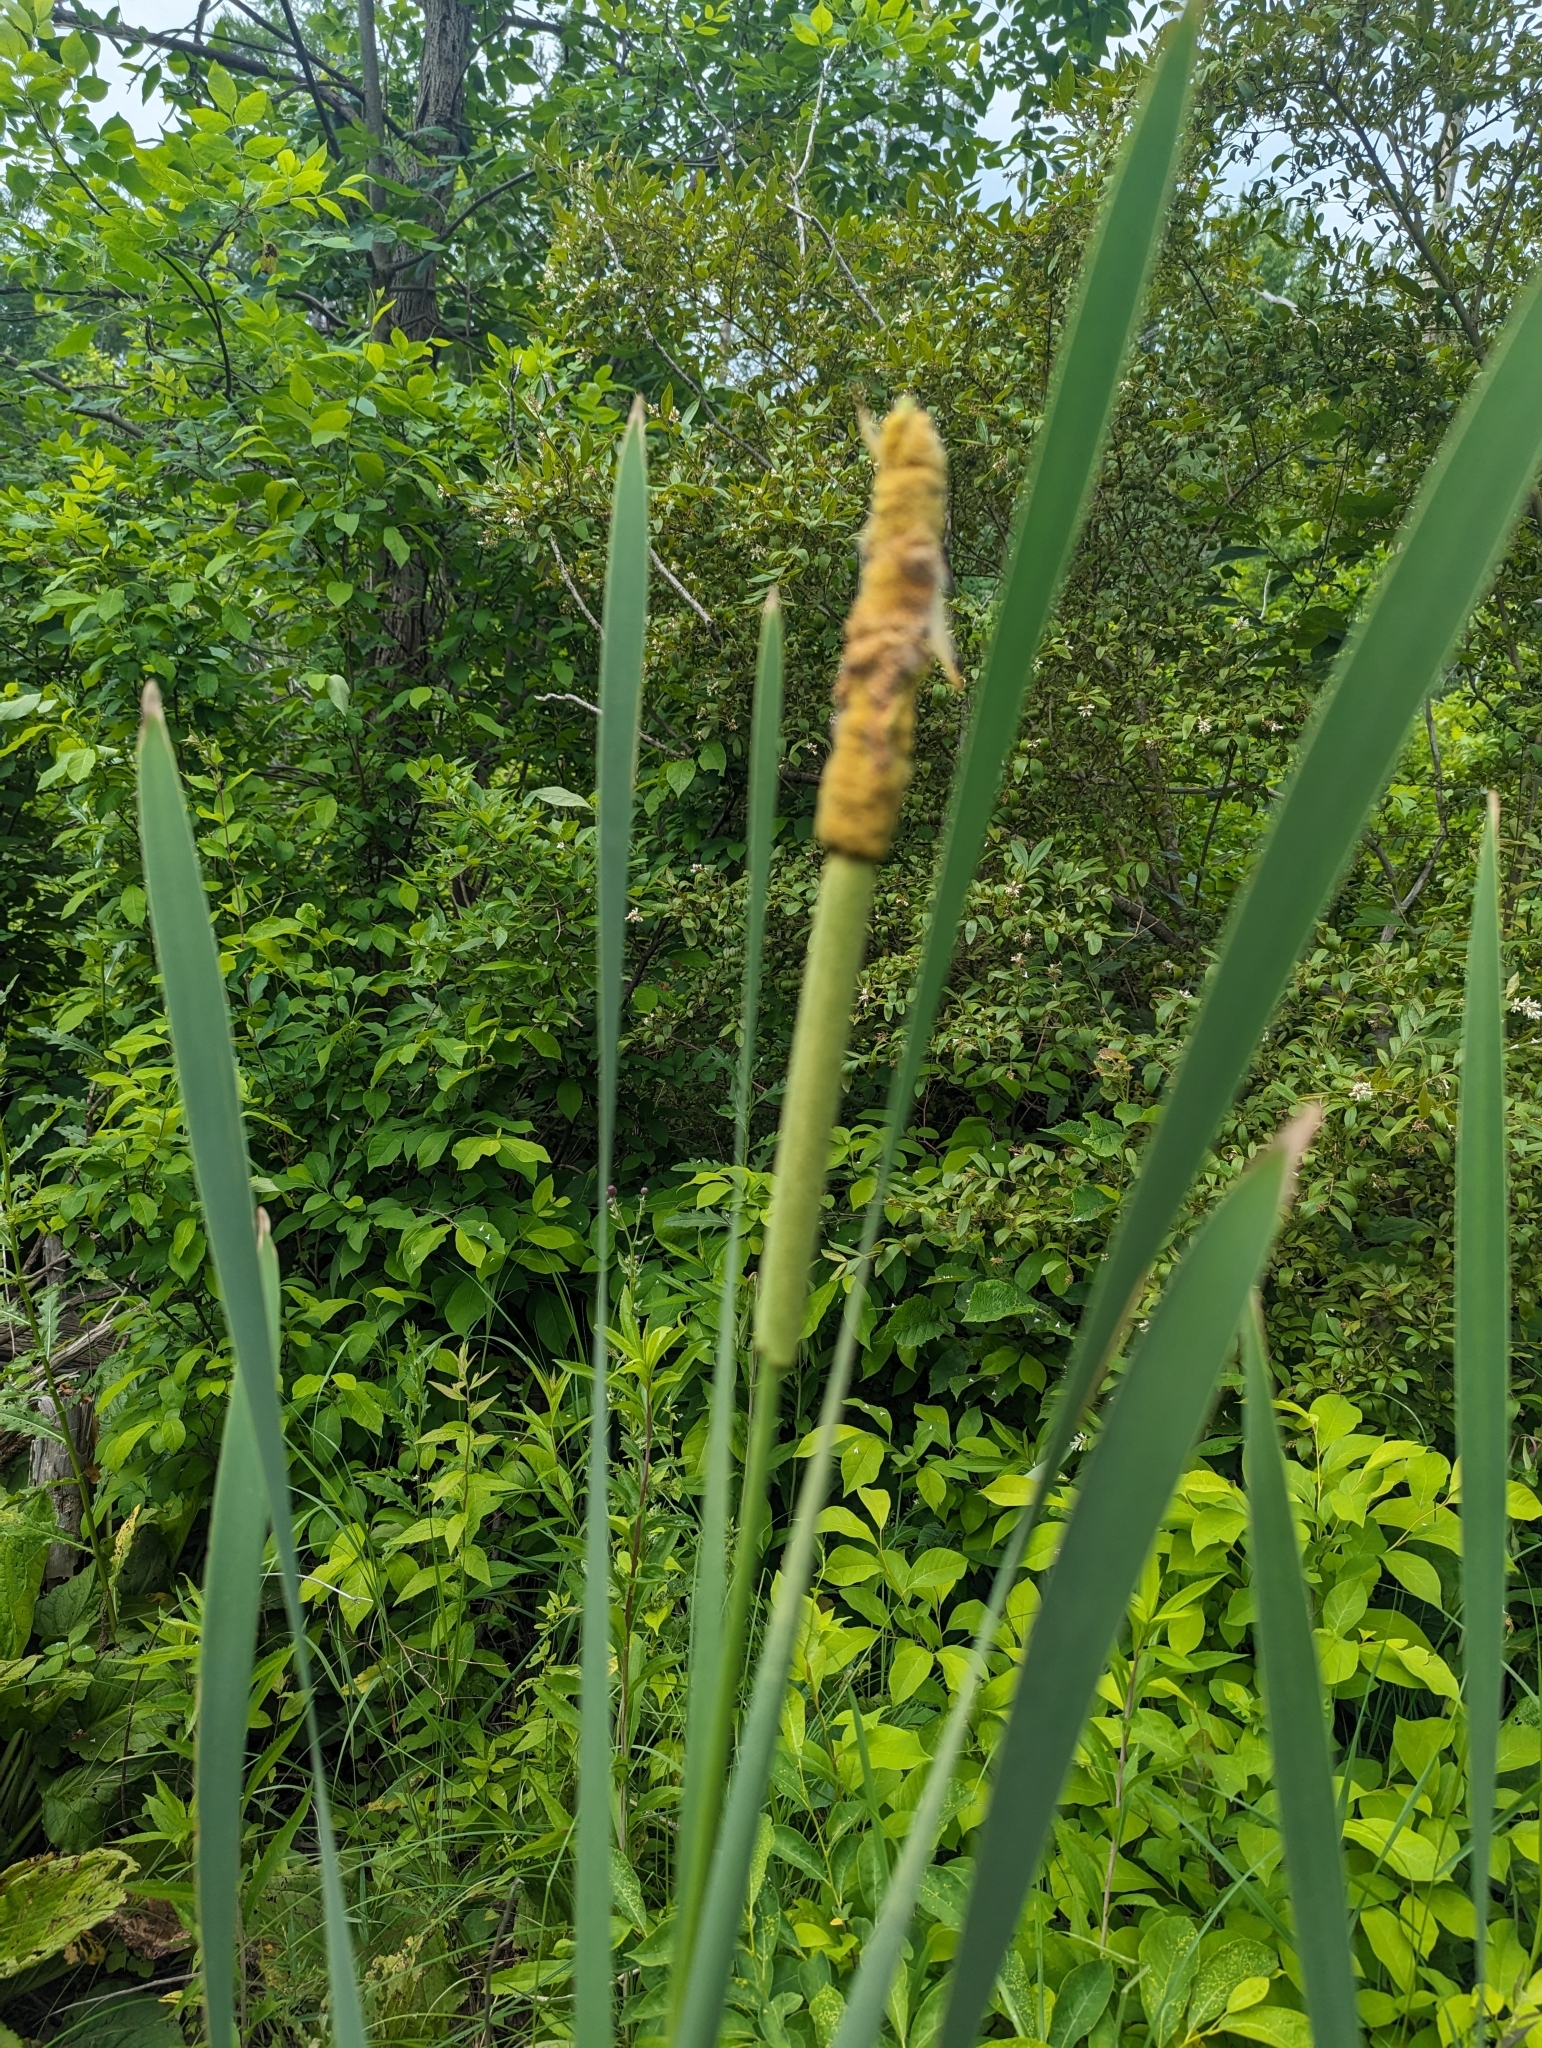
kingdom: Plantae
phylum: Tracheophyta
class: Liliopsida
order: Poales
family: Typhaceae
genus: Typha
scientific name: Typha latifolia
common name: Broadleaf cattail
